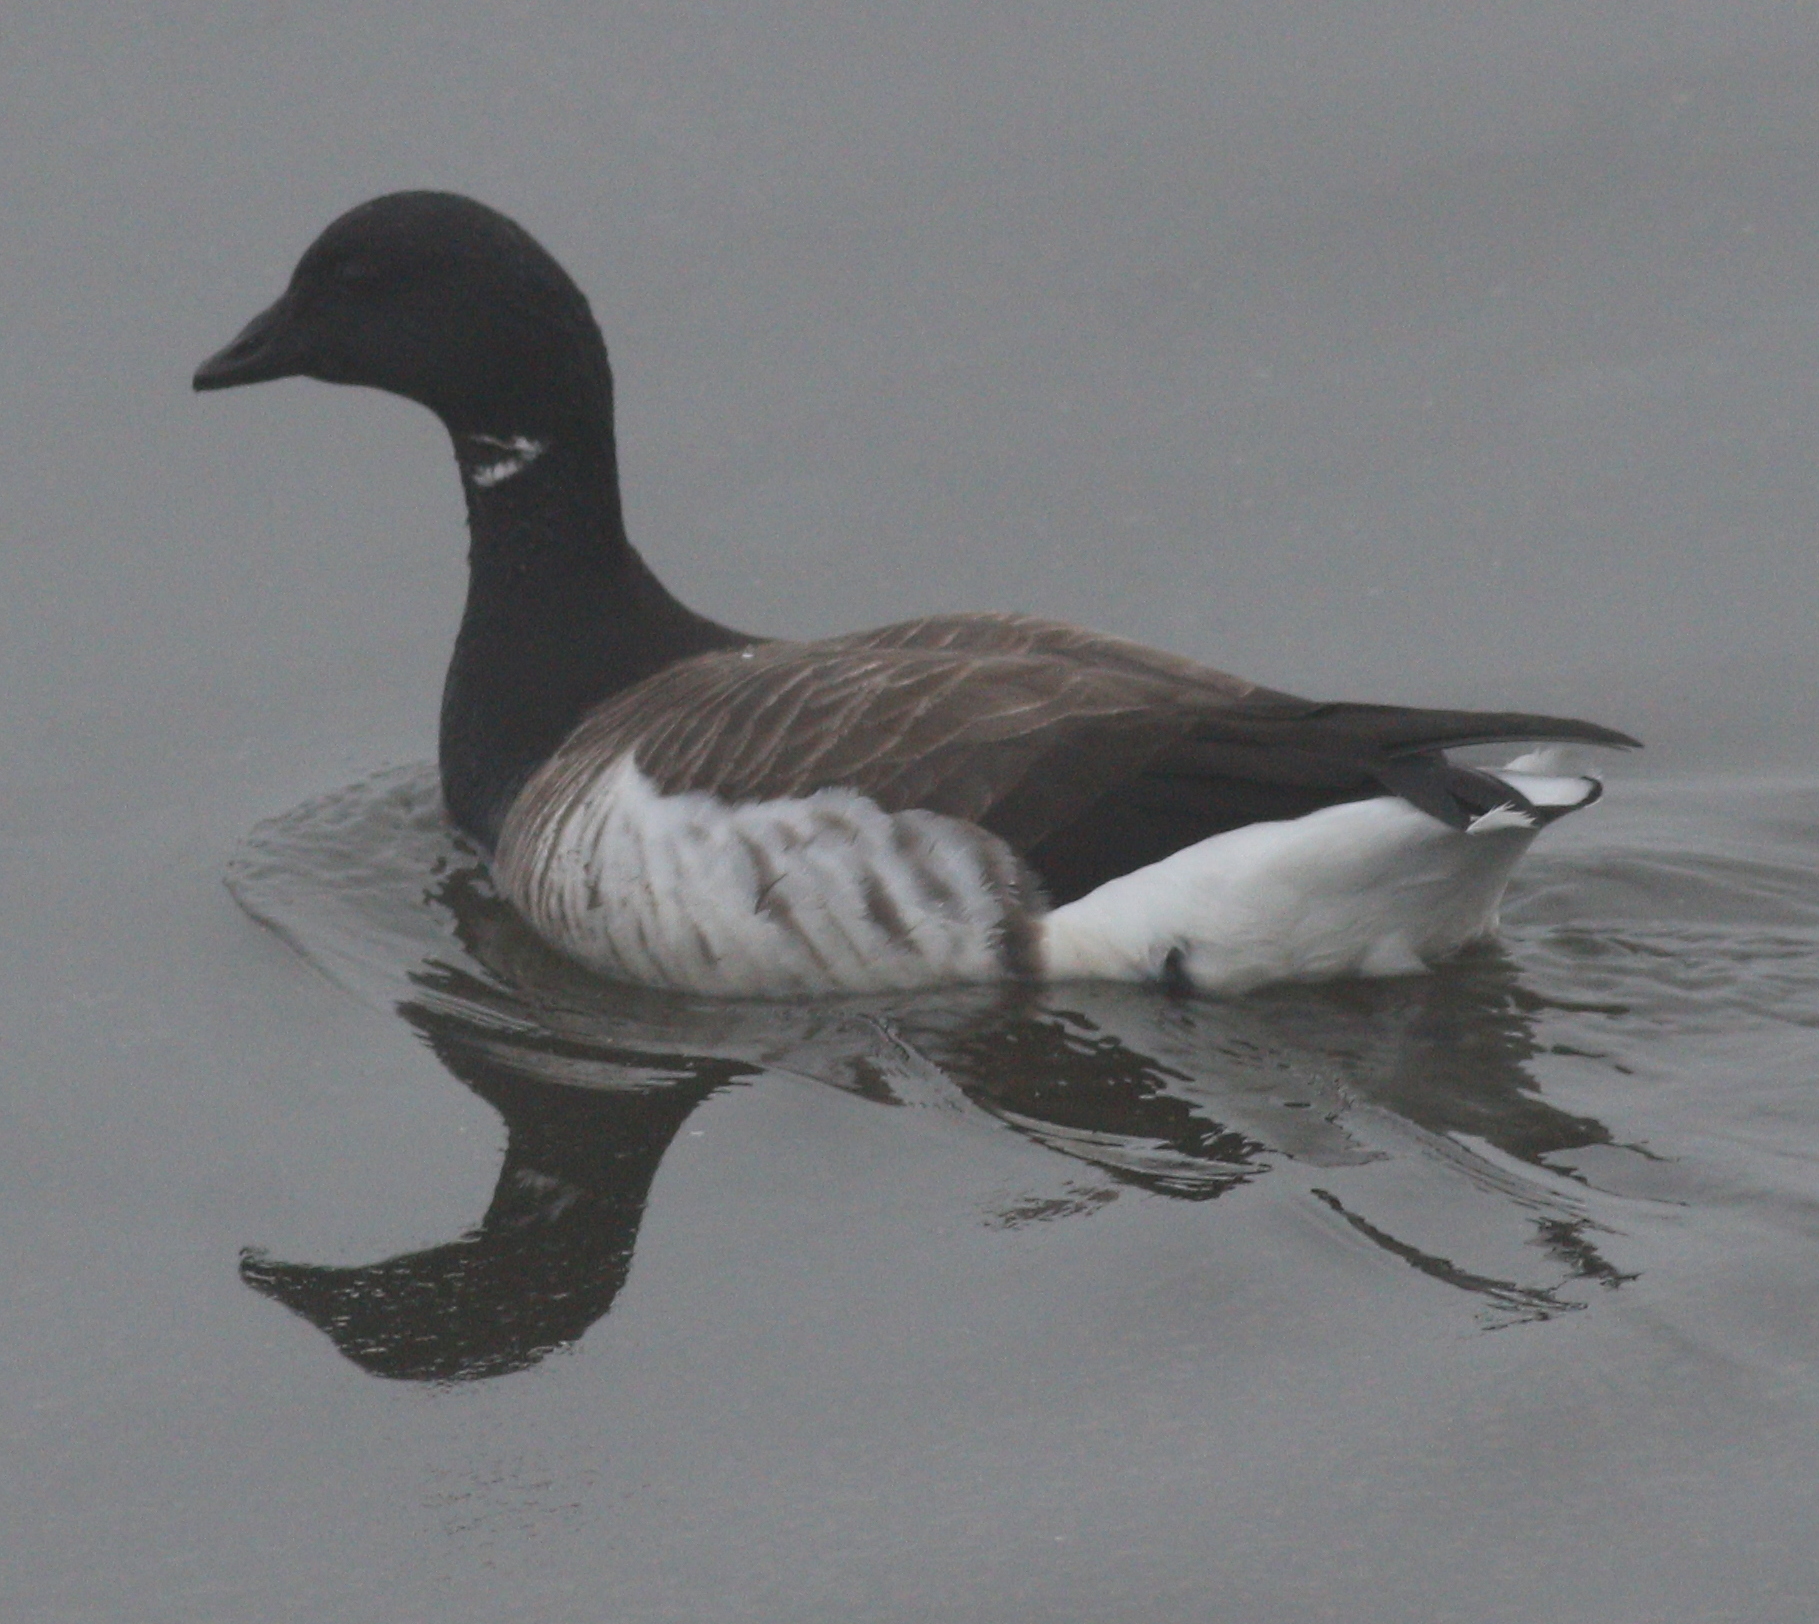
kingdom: Animalia
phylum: Chordata
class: Aves
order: Anseriformes
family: Anatidae
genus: Branta
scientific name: Branta bernicla
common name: Brant goose
